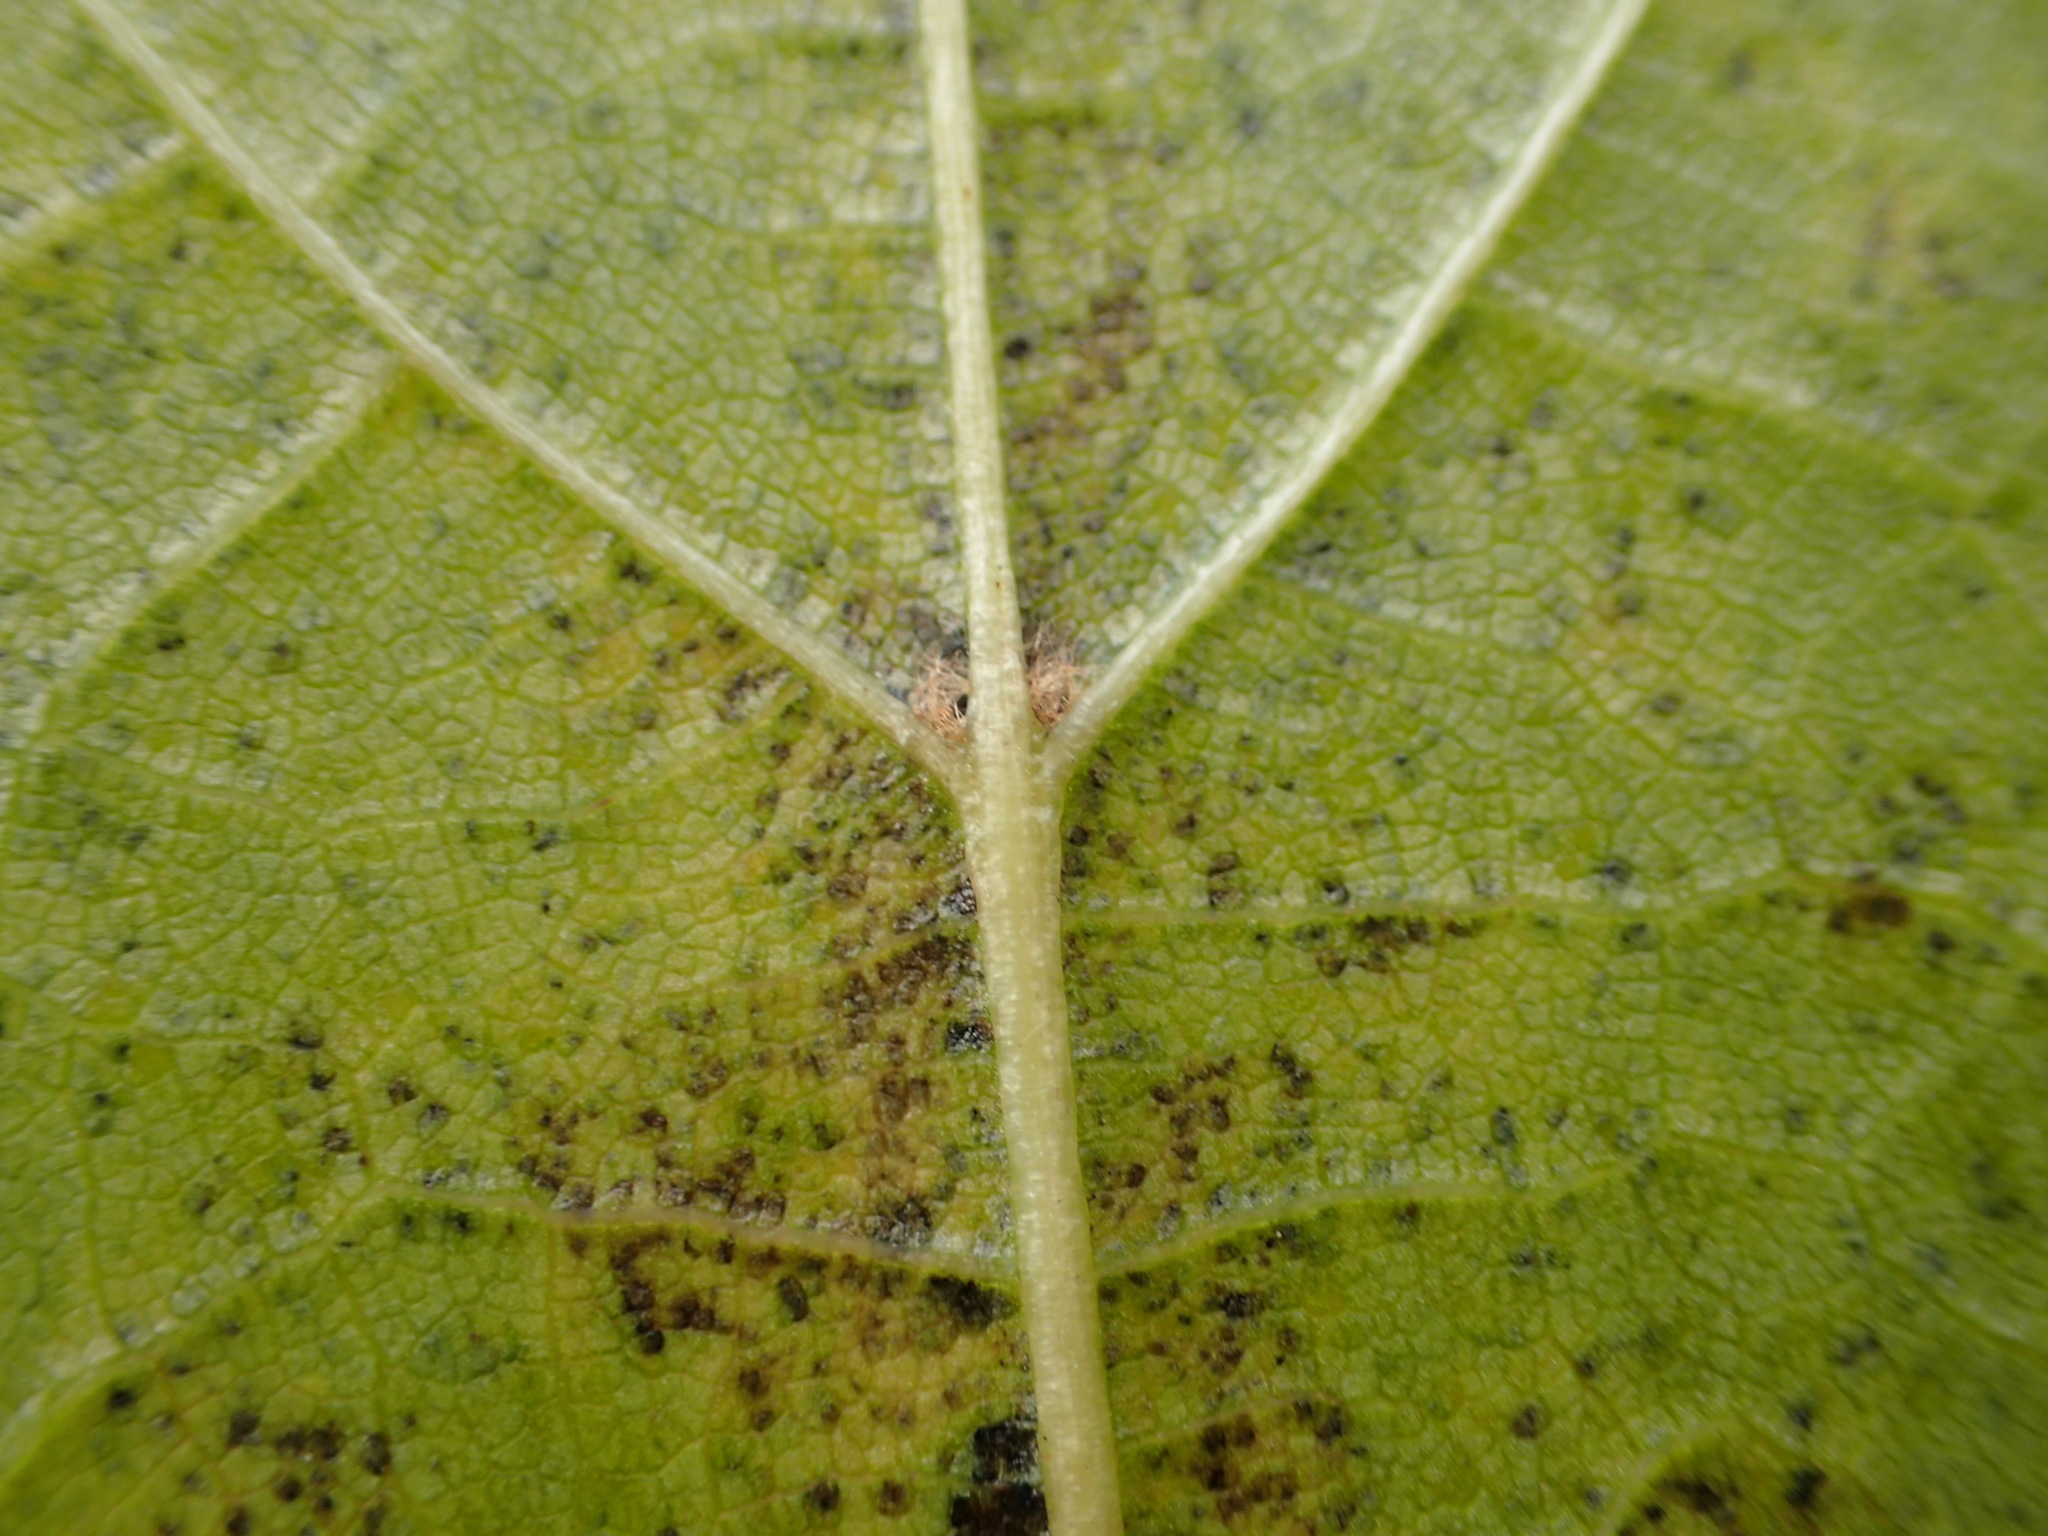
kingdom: Plantae
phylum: Tracheophyta
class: Magnoliopsida
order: Malvales
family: Malvaceae
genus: Tilia
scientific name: Tilia cordata
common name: Small-leaved lime
